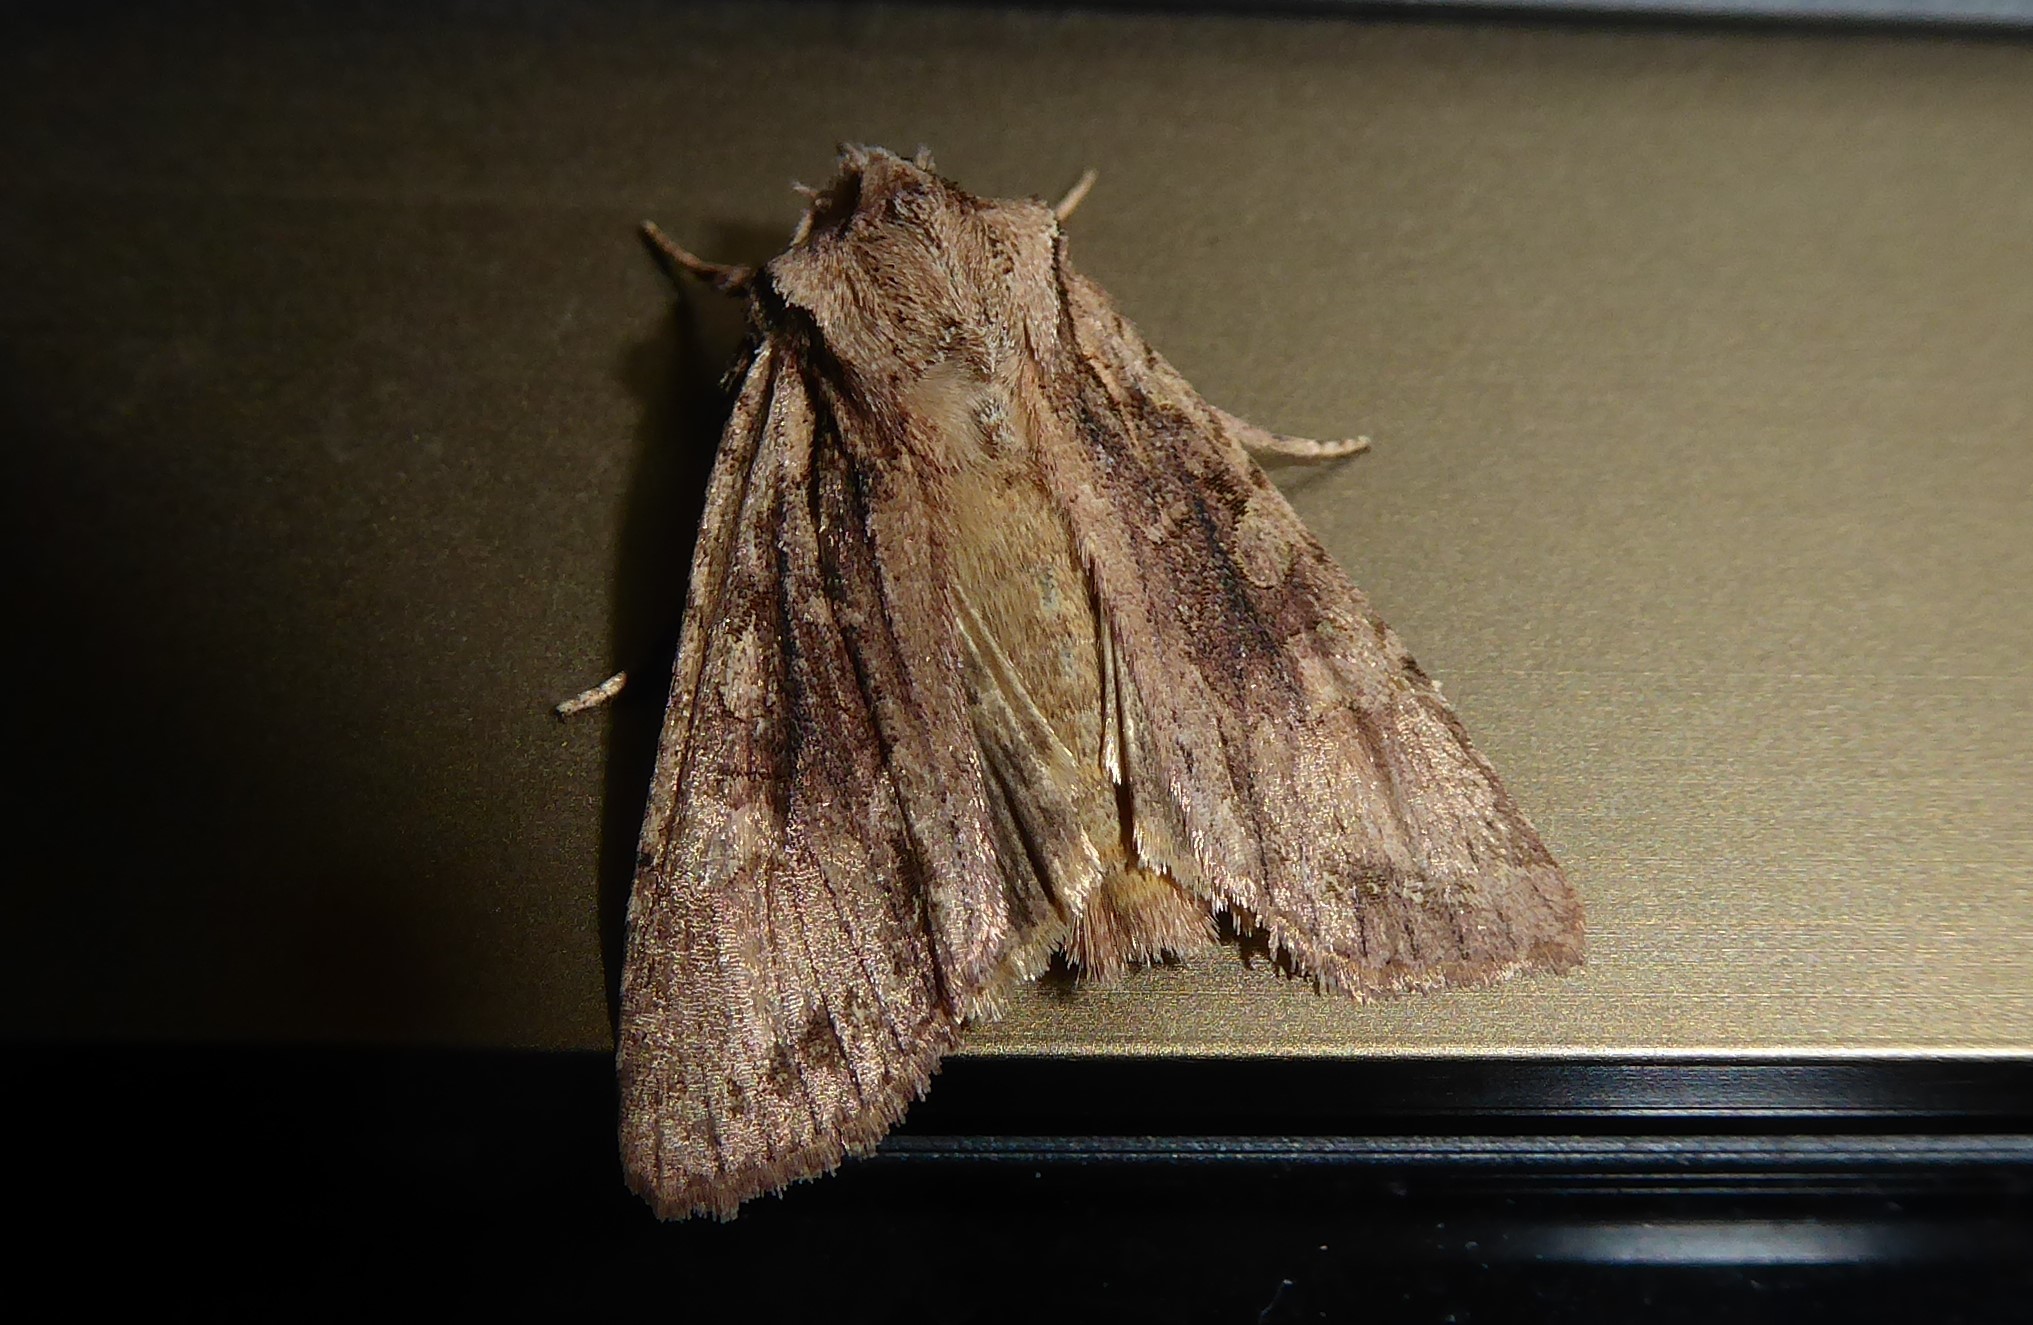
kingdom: Animalia
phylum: Arthropoda
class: Insecta
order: Lepidoptera
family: Noctuidae
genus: Ichneutica
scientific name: Ichneutica
